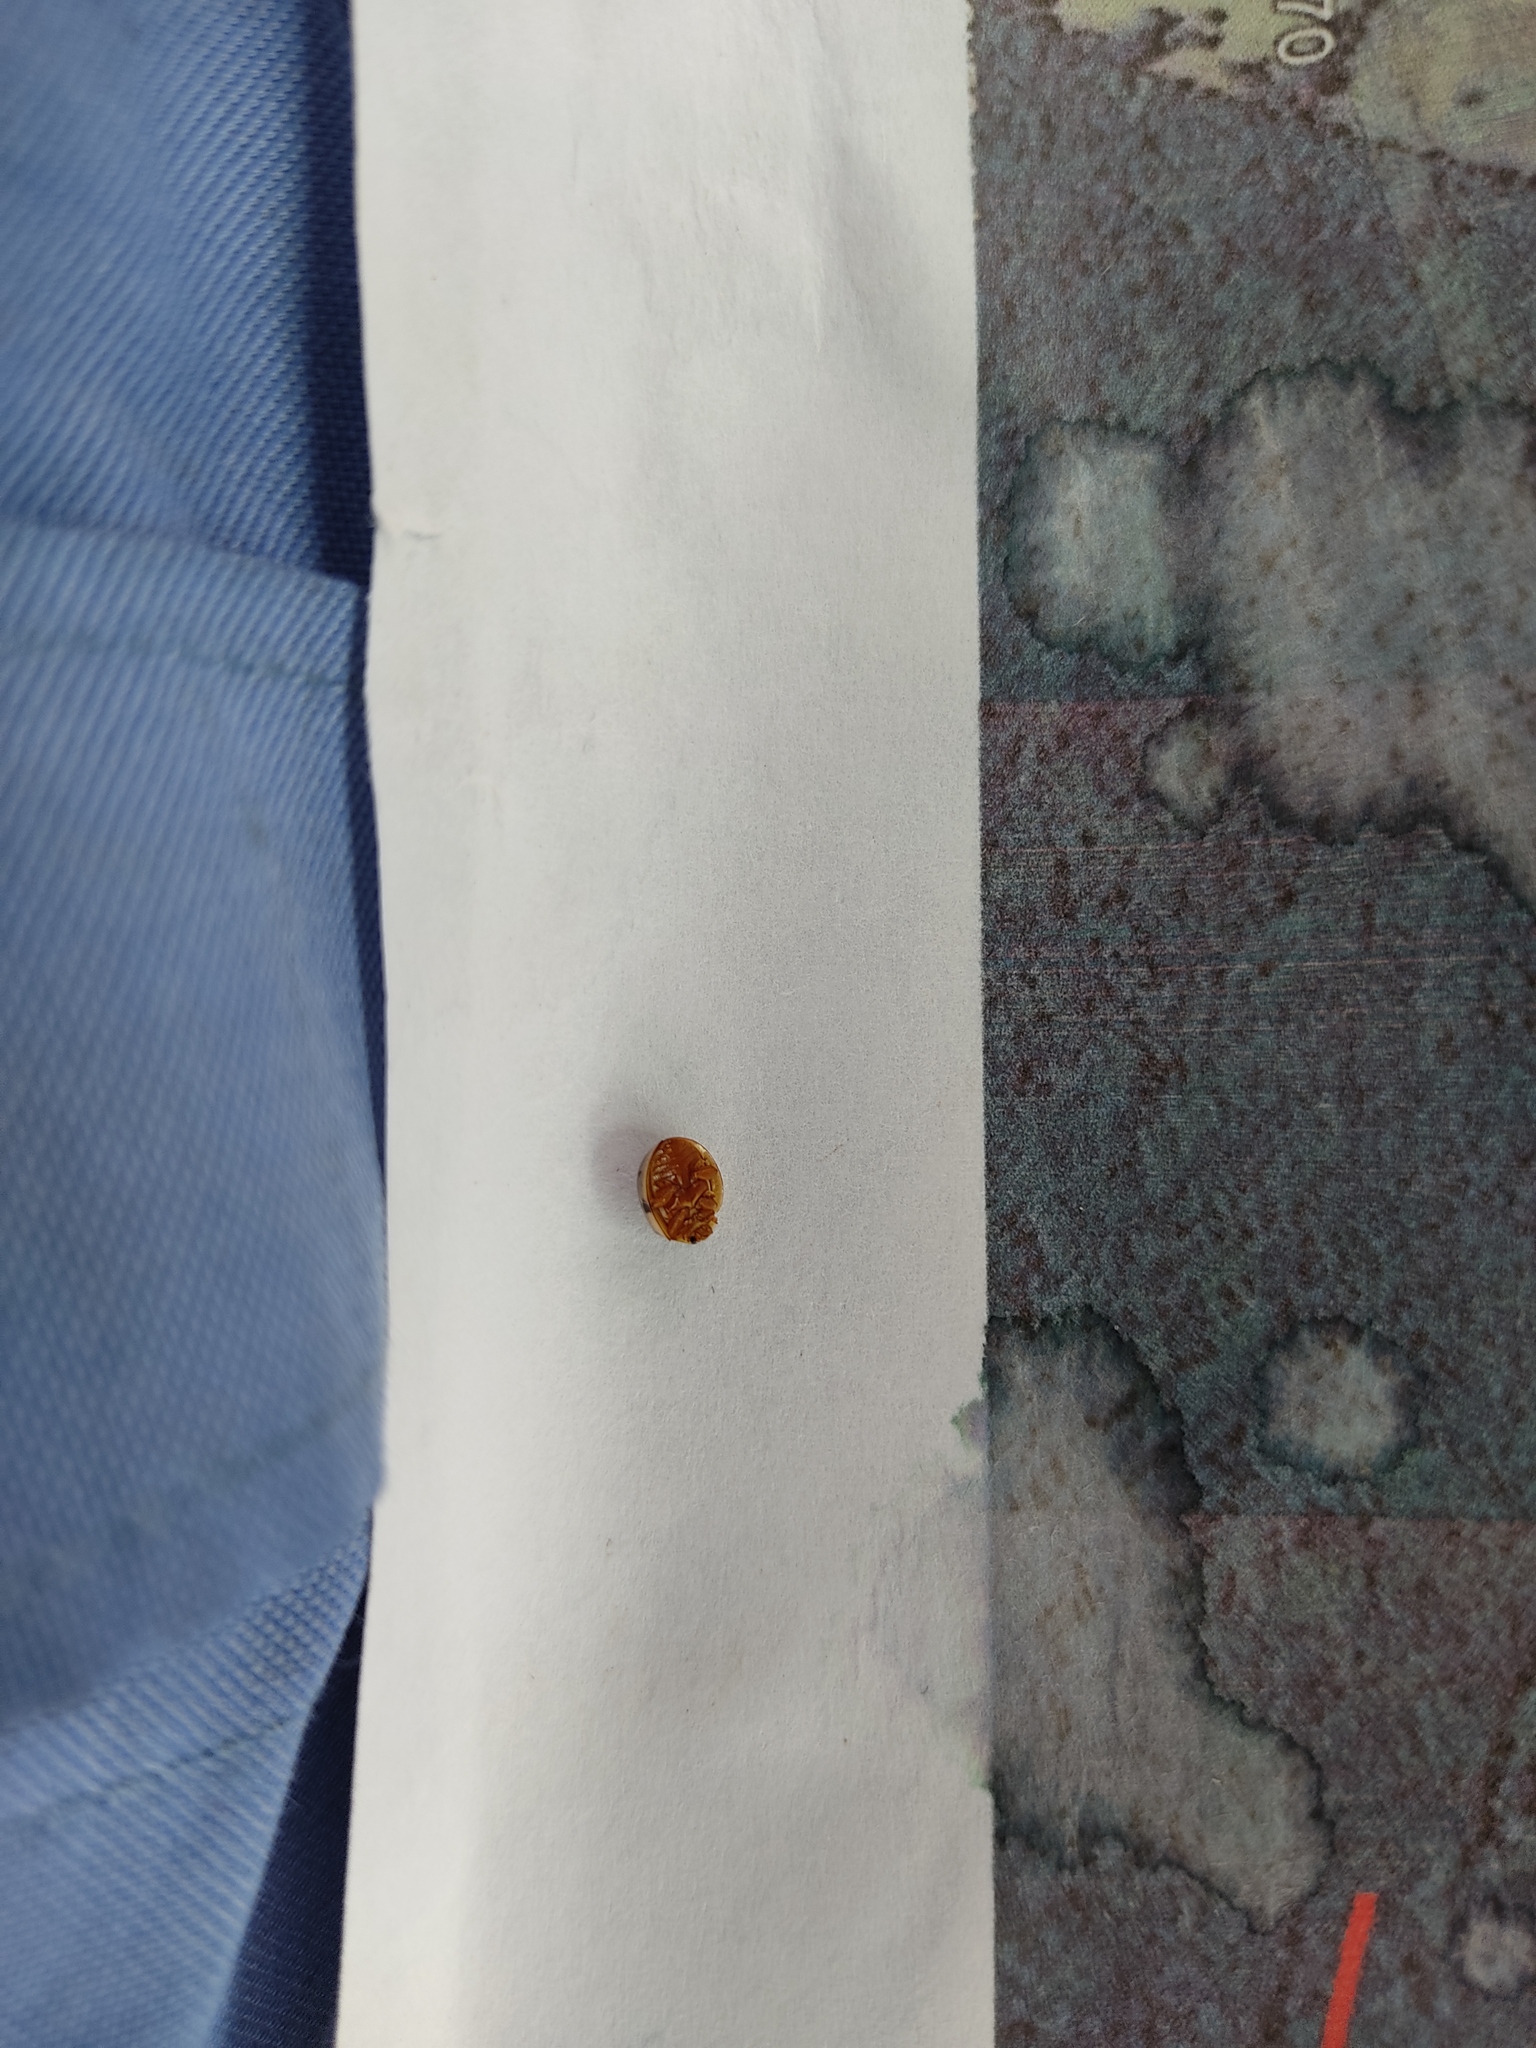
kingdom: Animalia
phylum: Arthropoda
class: Insecta
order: Coleoptera
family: Coccinellidae
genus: Olla
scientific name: Olla
